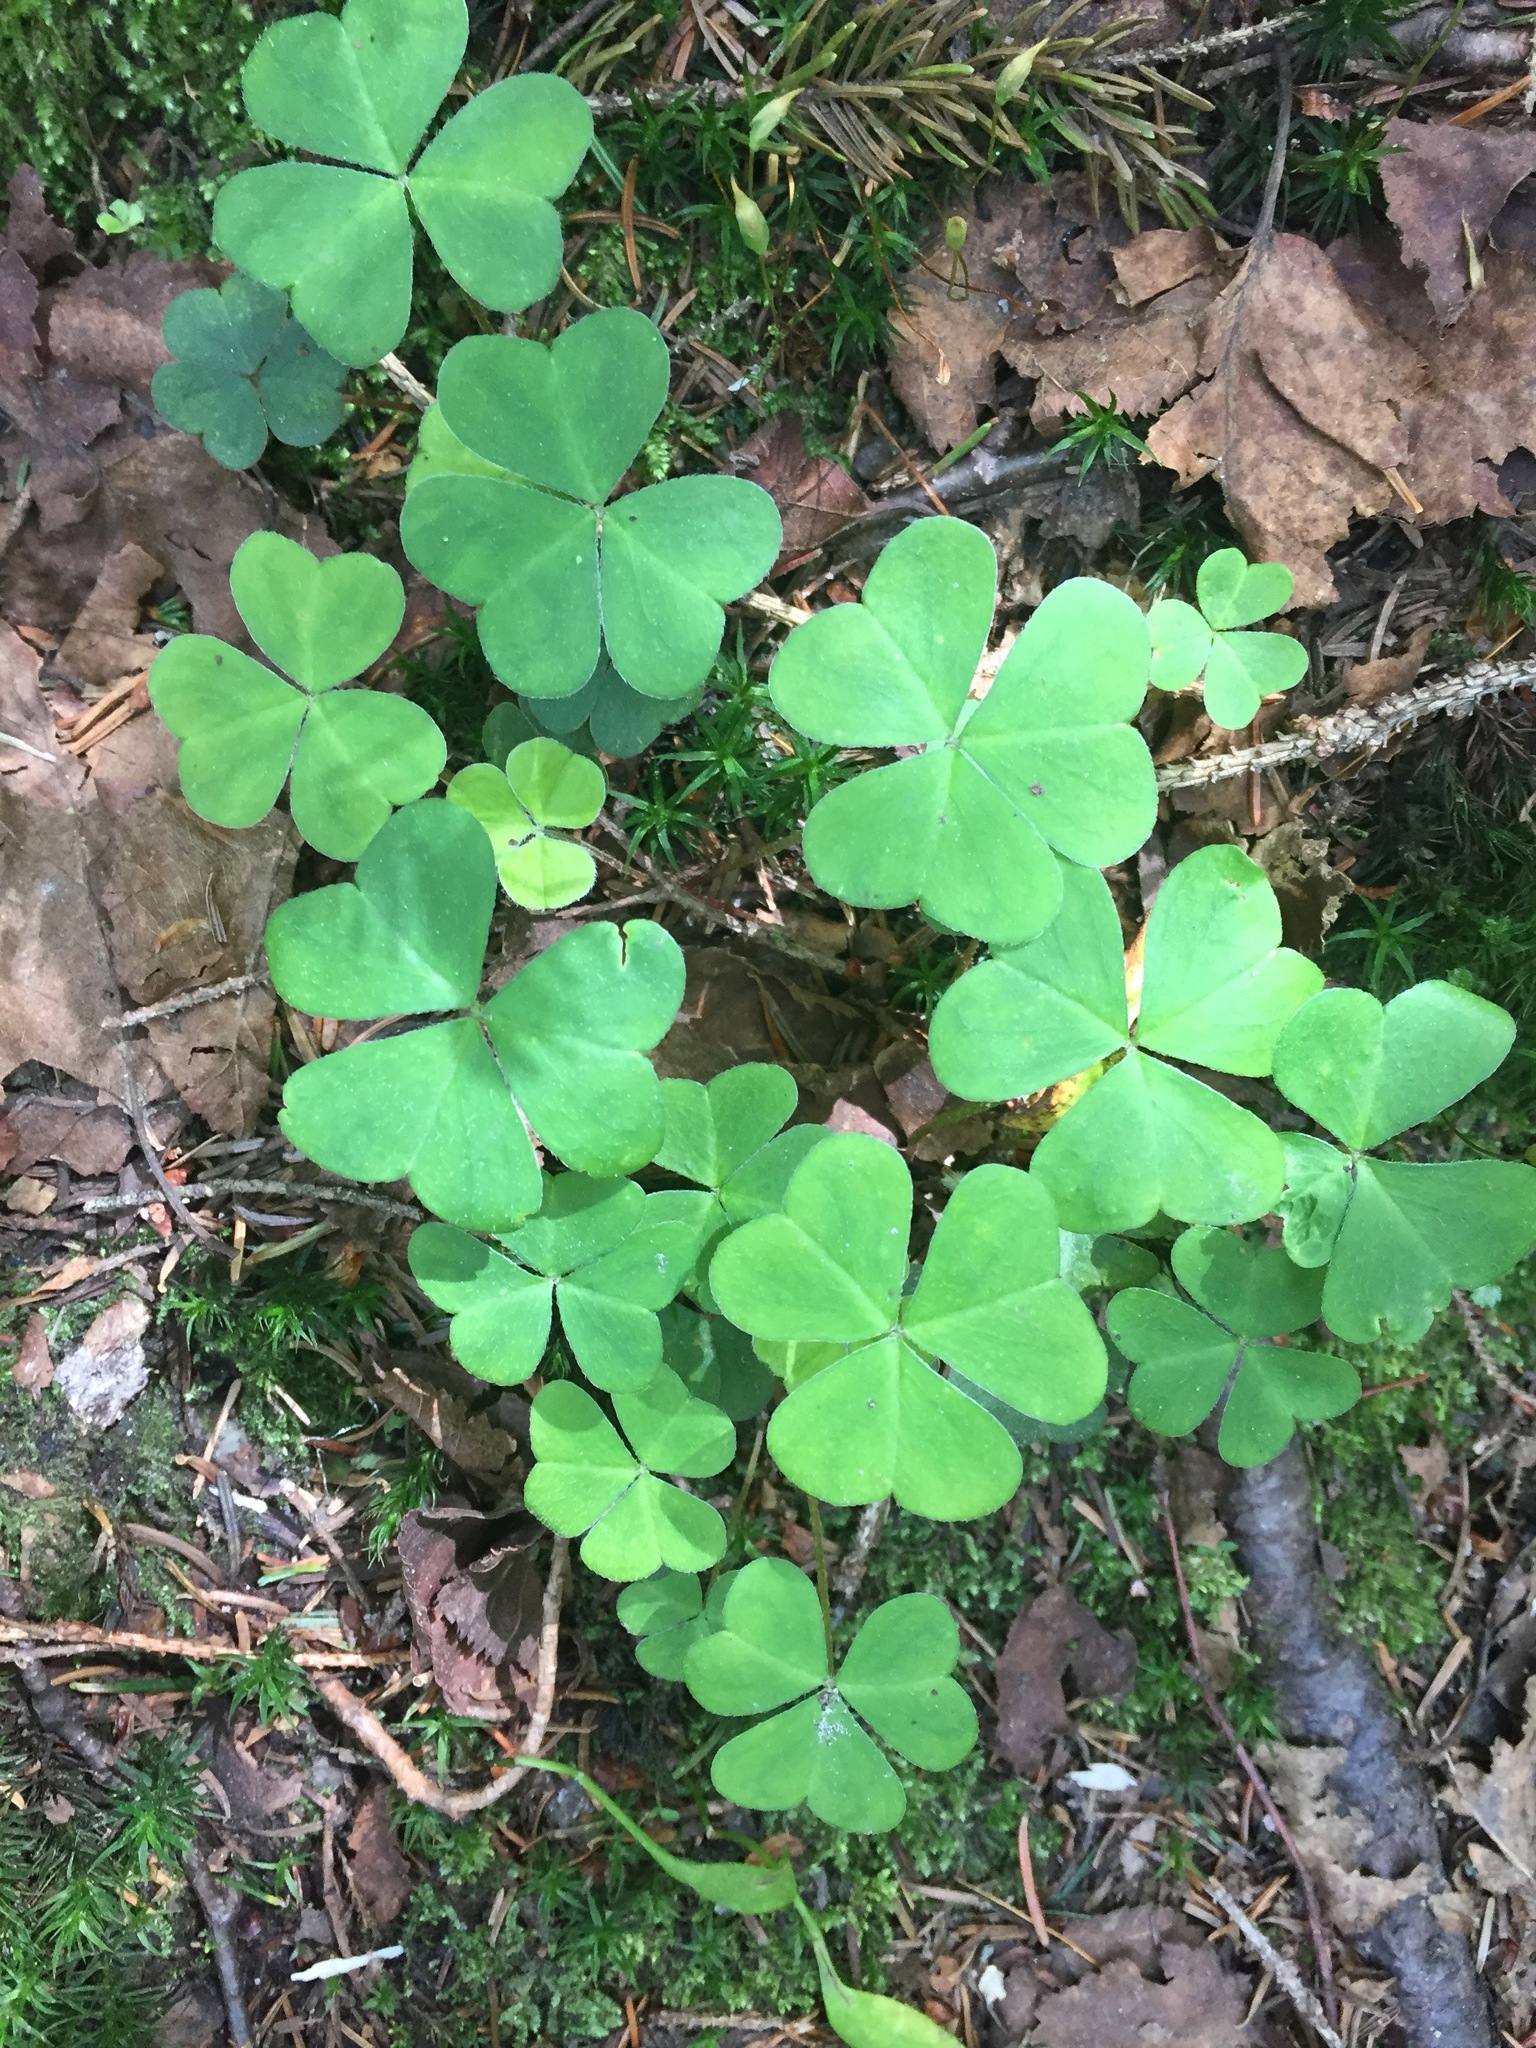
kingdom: Plantae
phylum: Tracheophyta
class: Magnoliopsida
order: Oxalidales
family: Oxalidaceae
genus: Oxalis
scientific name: Oxalis montana
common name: American wood-sorrel
